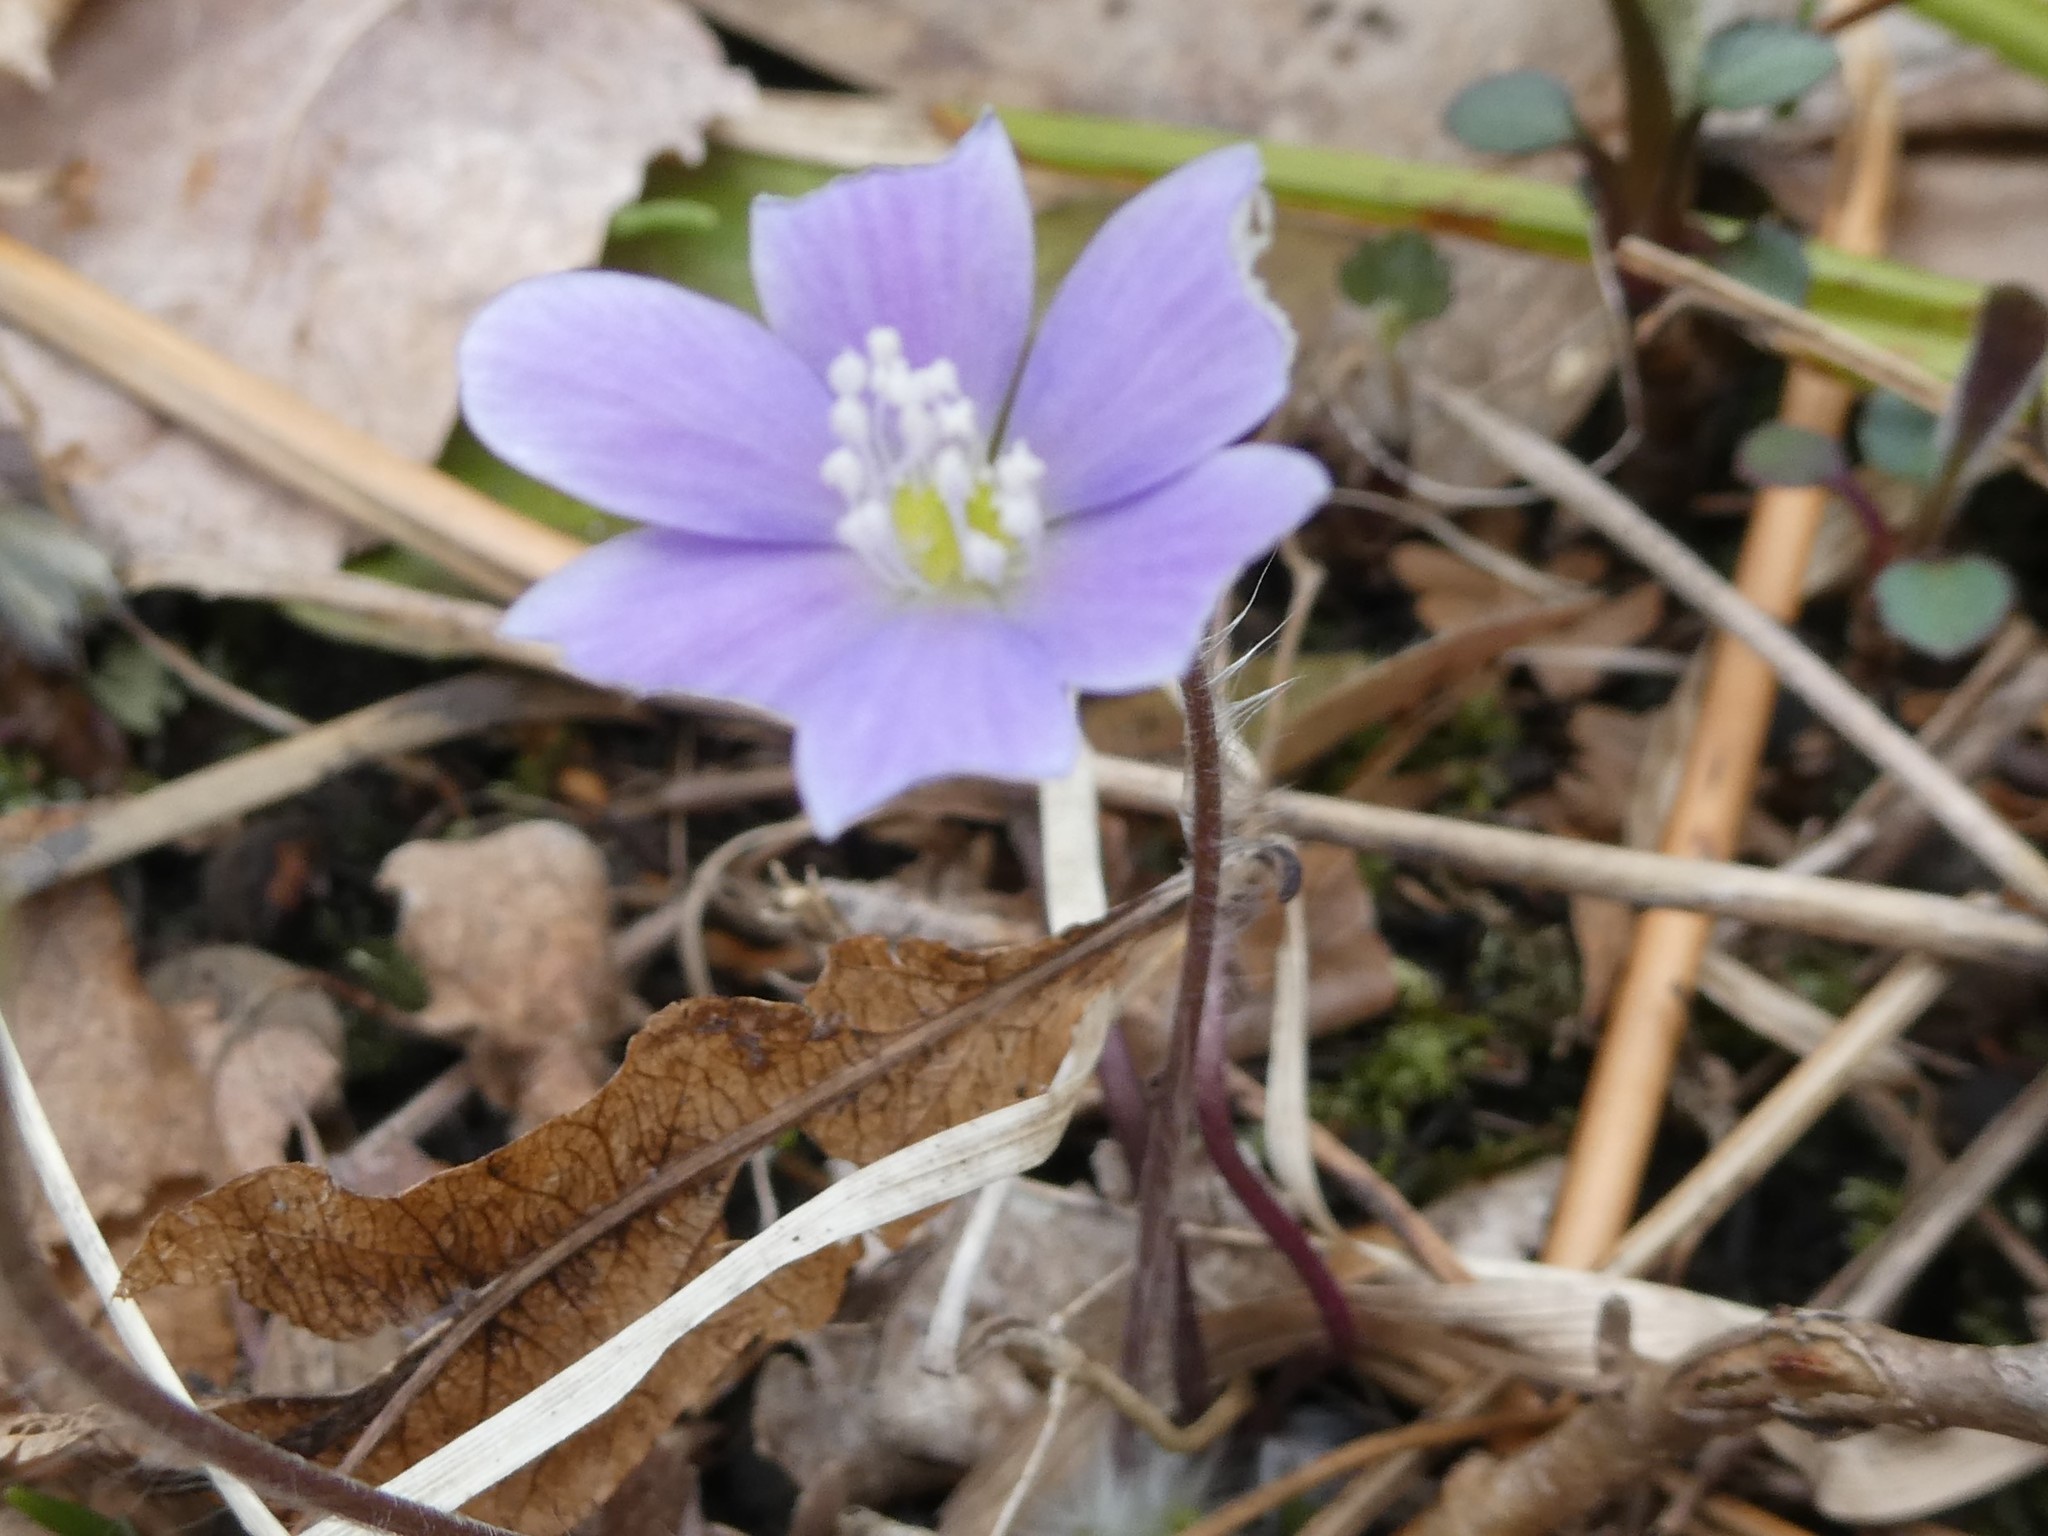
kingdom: Plantae
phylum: Tracheophyta
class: Magnoliopsida
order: Ranunculales
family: Ranunculaceae
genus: Hepatica
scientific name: Hepatica americana
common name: American hepatica
